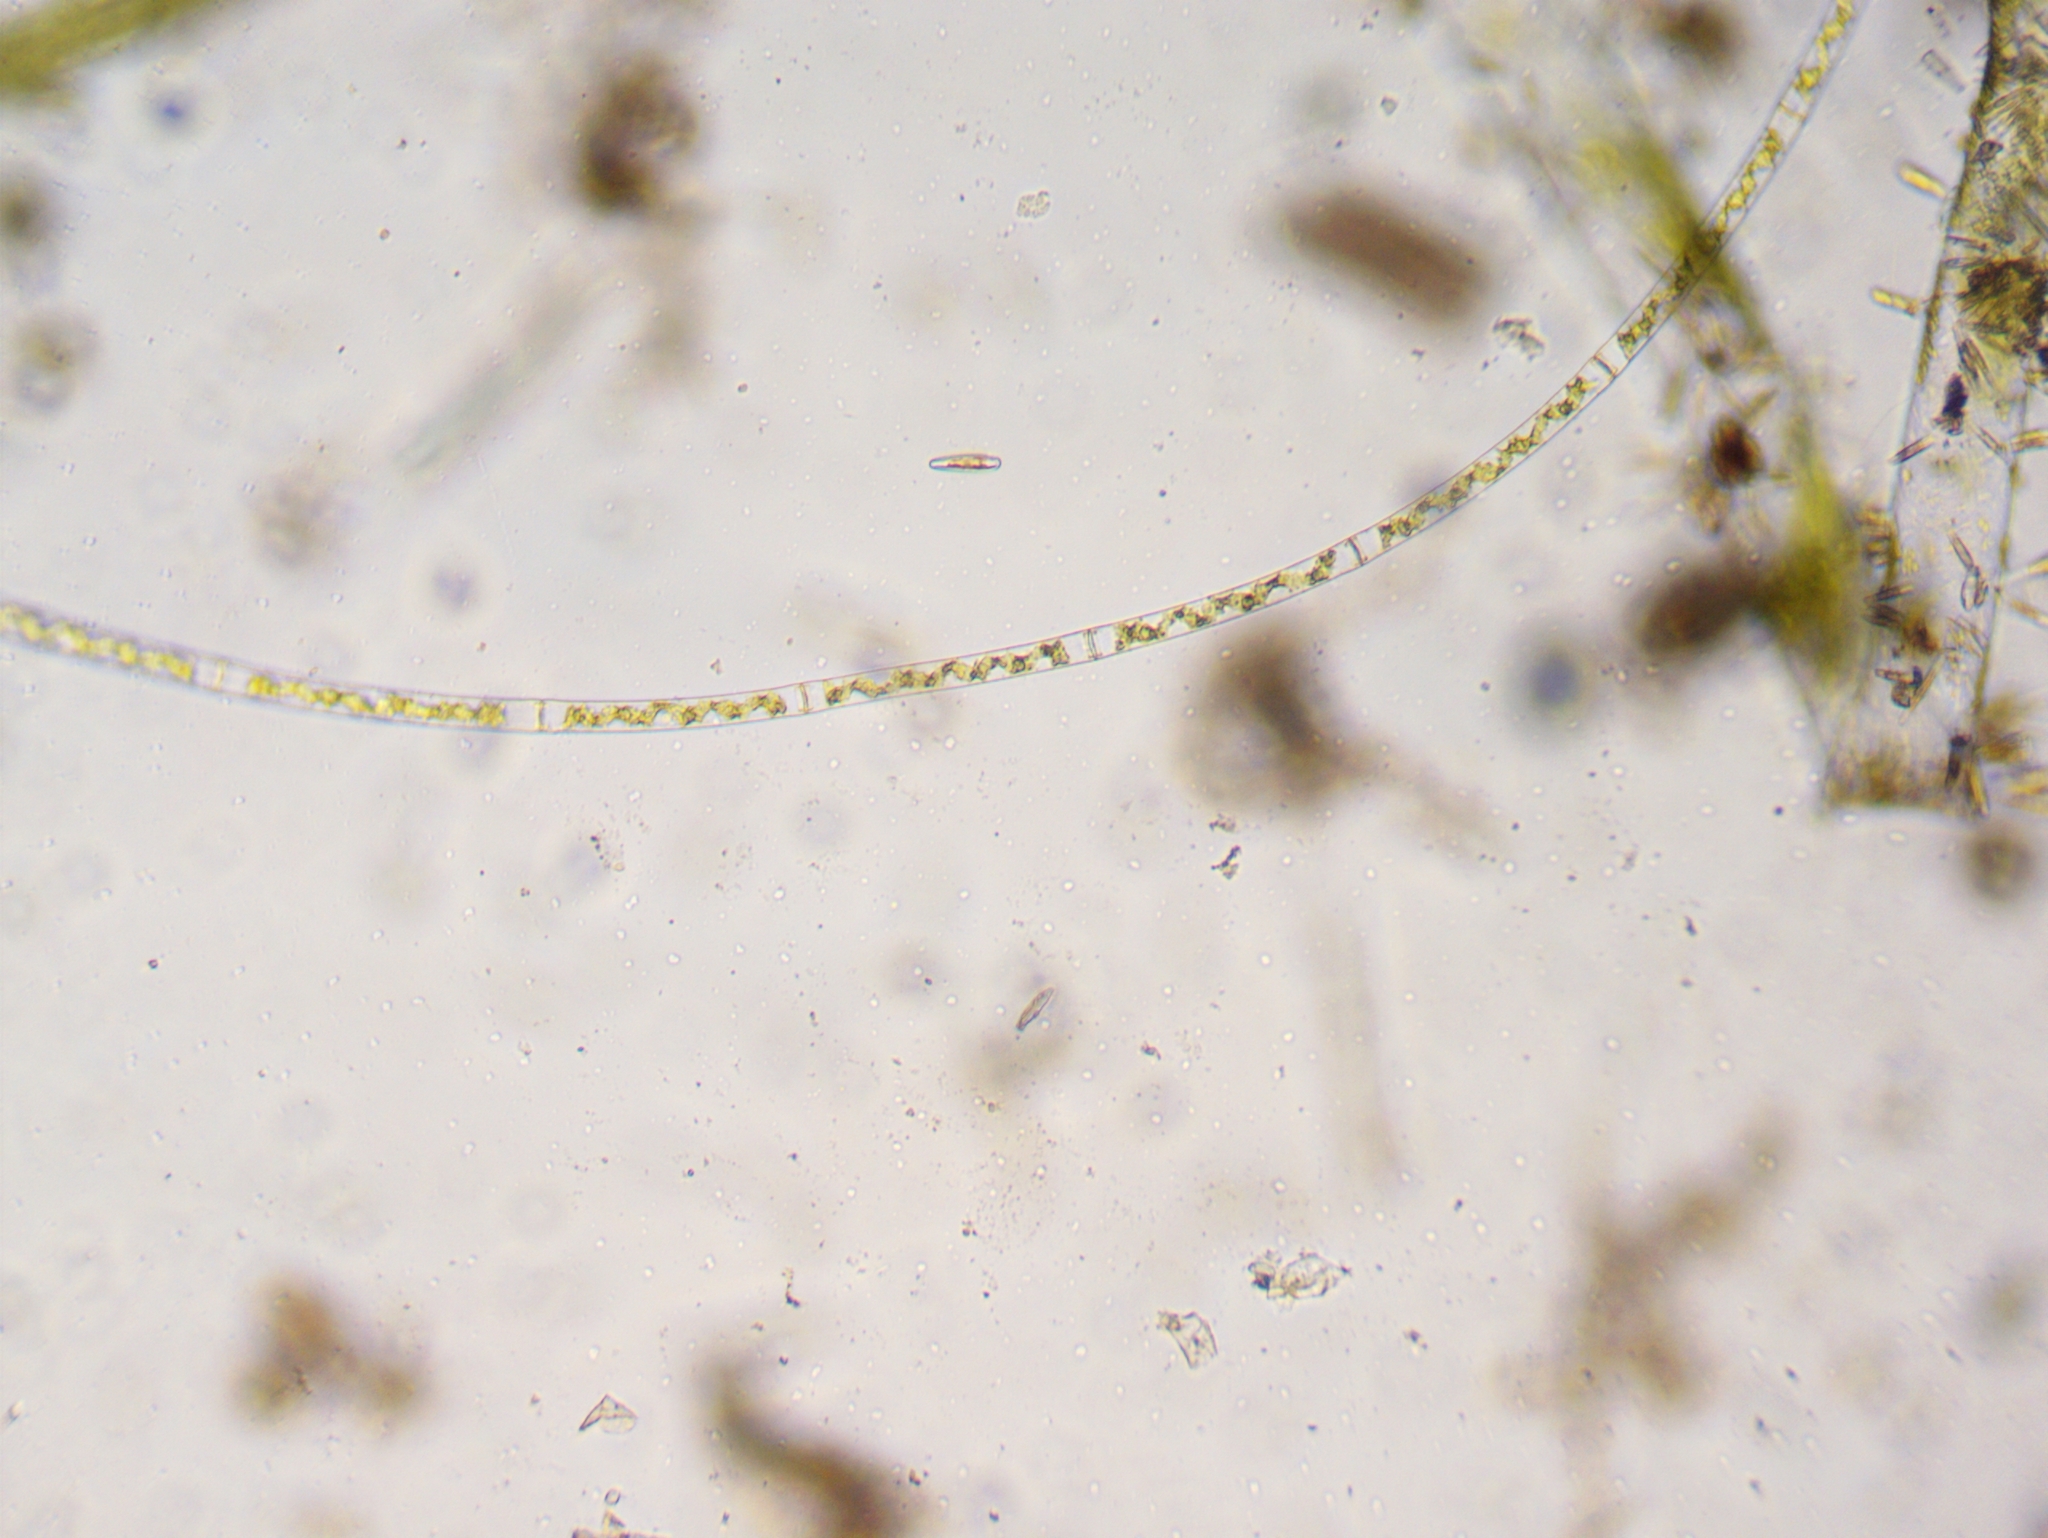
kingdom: Plantae
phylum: Charophyta
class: Zygnematophyceae
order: Zygnematales
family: Zygnemataceae
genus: Spirogyra
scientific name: Spirogyra
